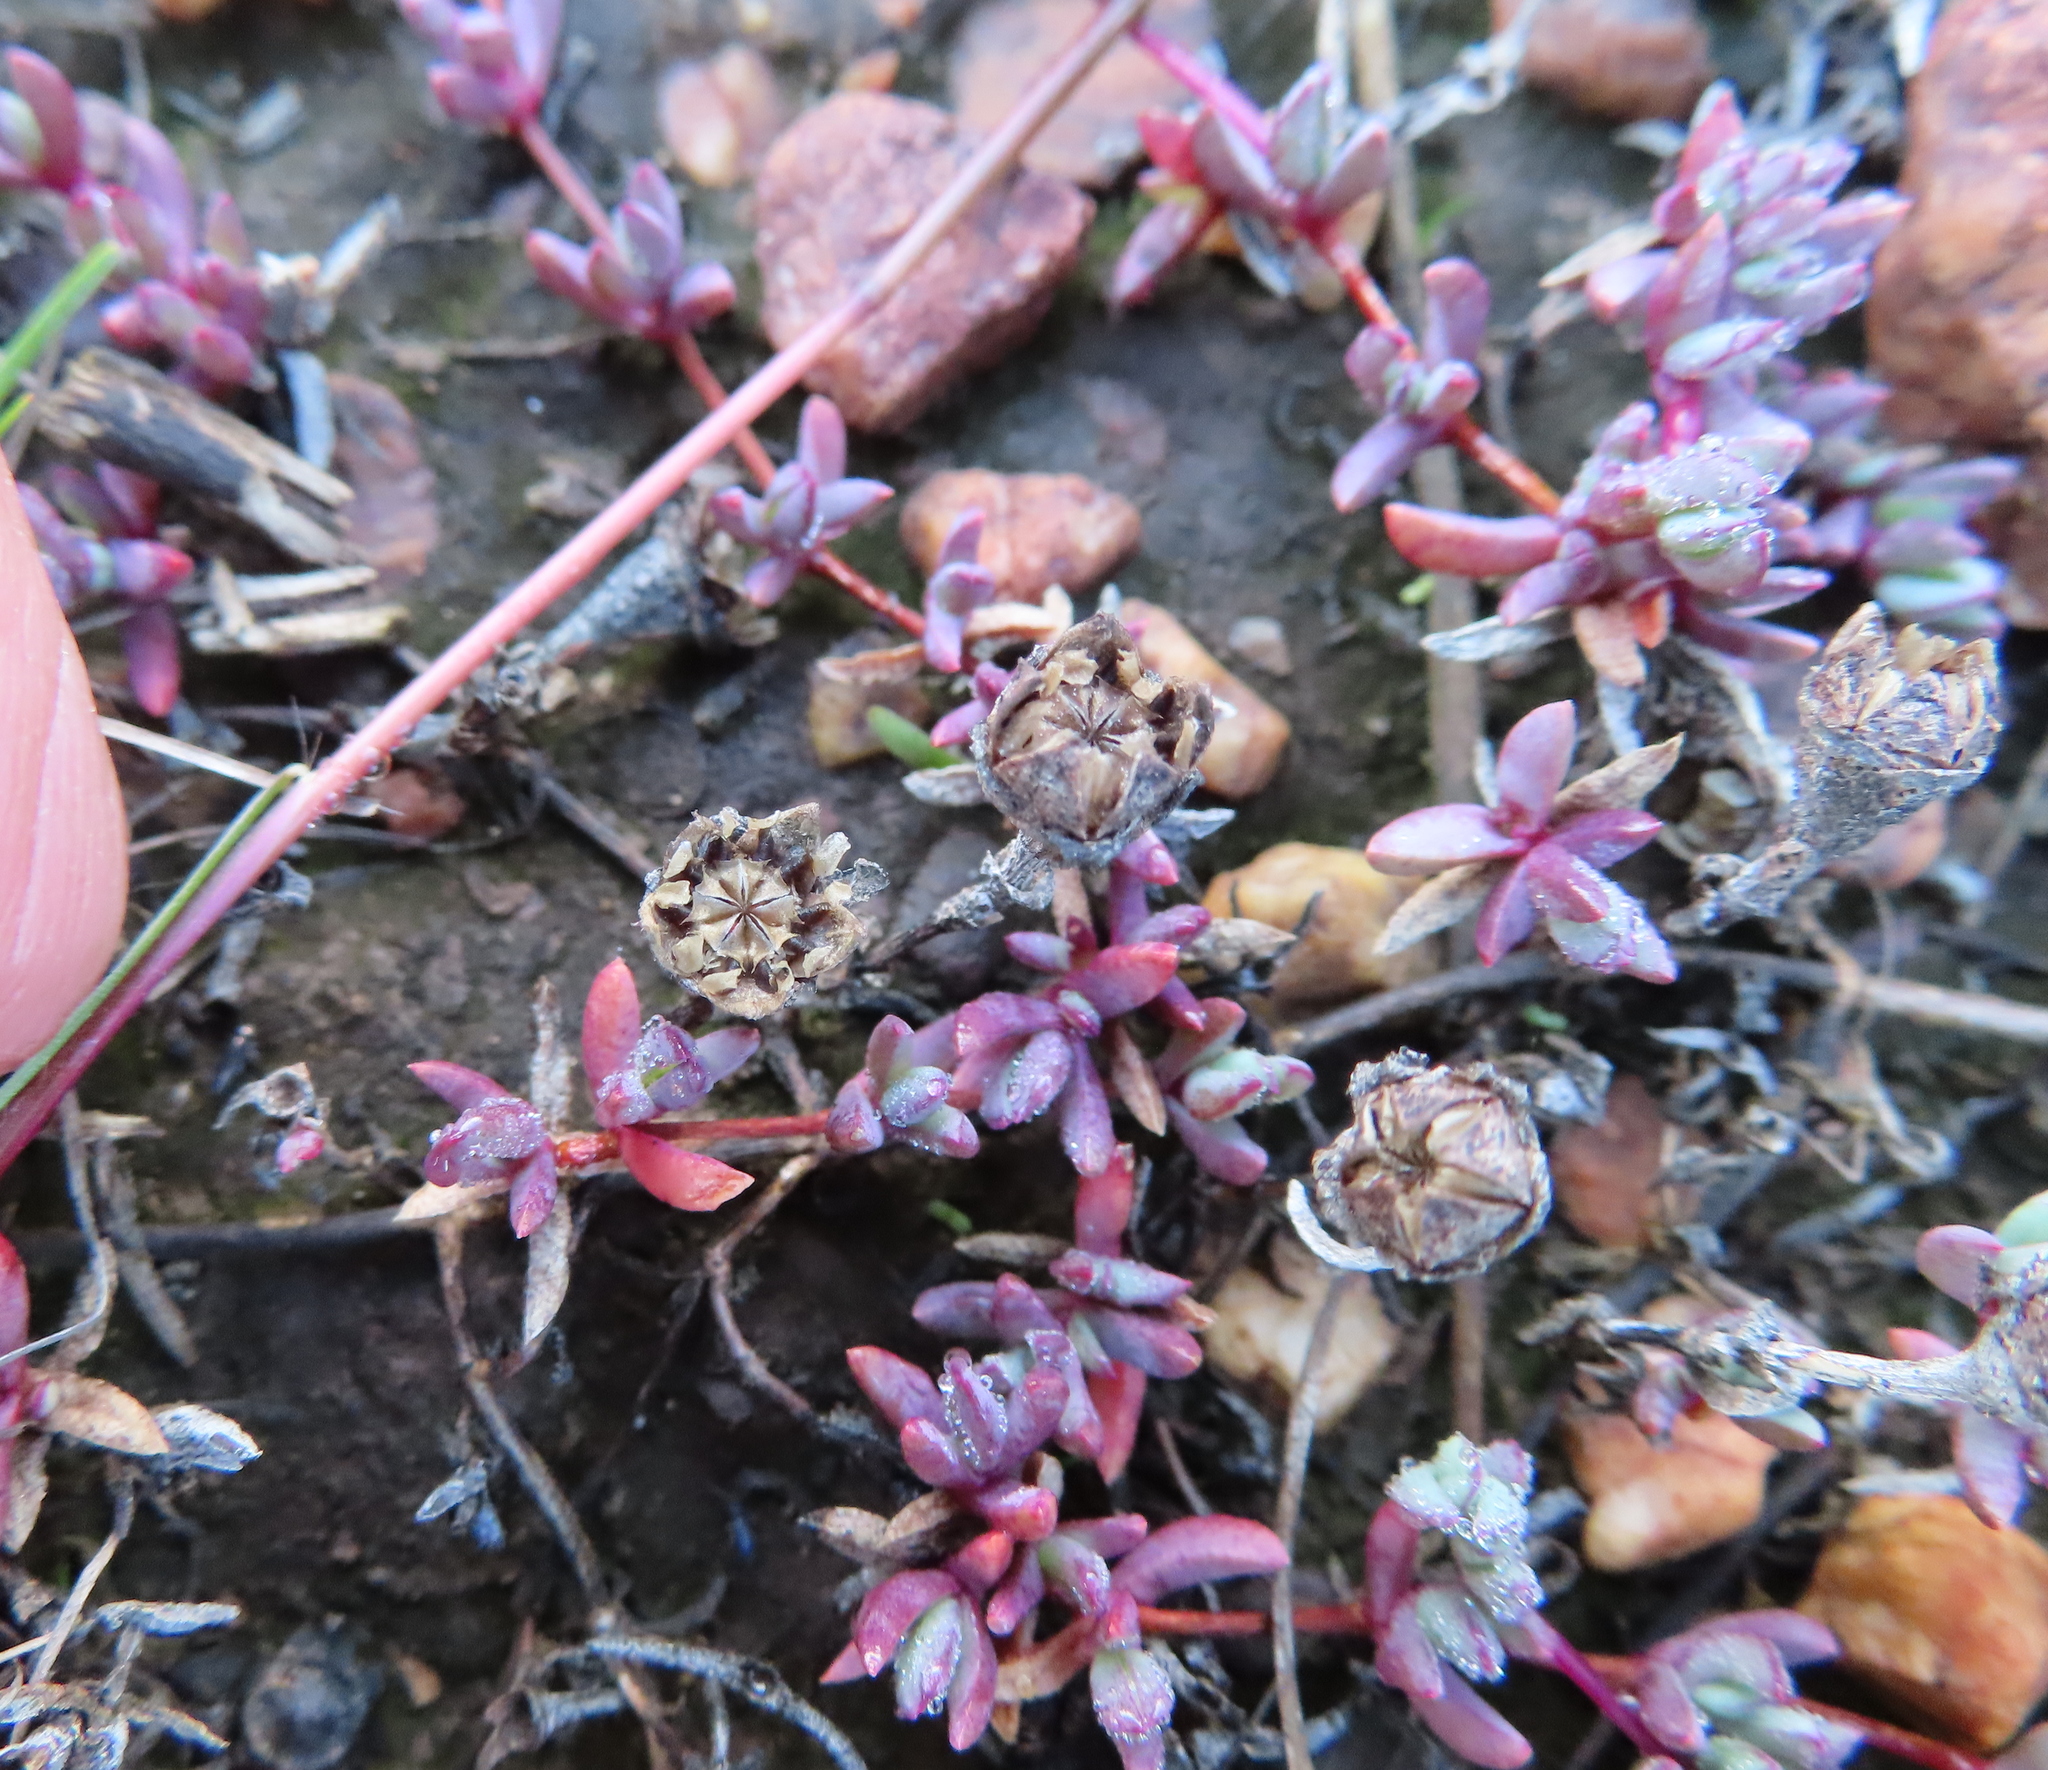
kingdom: Plantae
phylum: Tracheophyta
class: Magnoliopsida
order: Caryophyllales
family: Aizoaceae
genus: Lampranthus
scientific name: Lampranthus debilis
